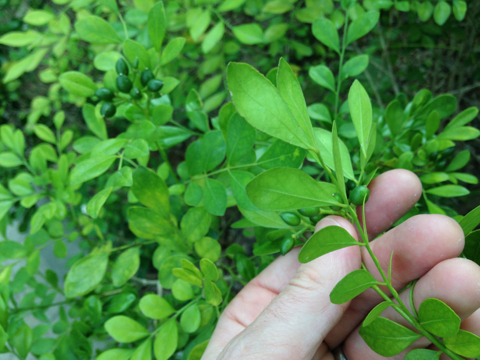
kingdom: Plantae
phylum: Tracheophyta
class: Magnoliopsida
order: Sapindales
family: Rutaceae
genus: Murraya
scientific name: Murraya paniculata
